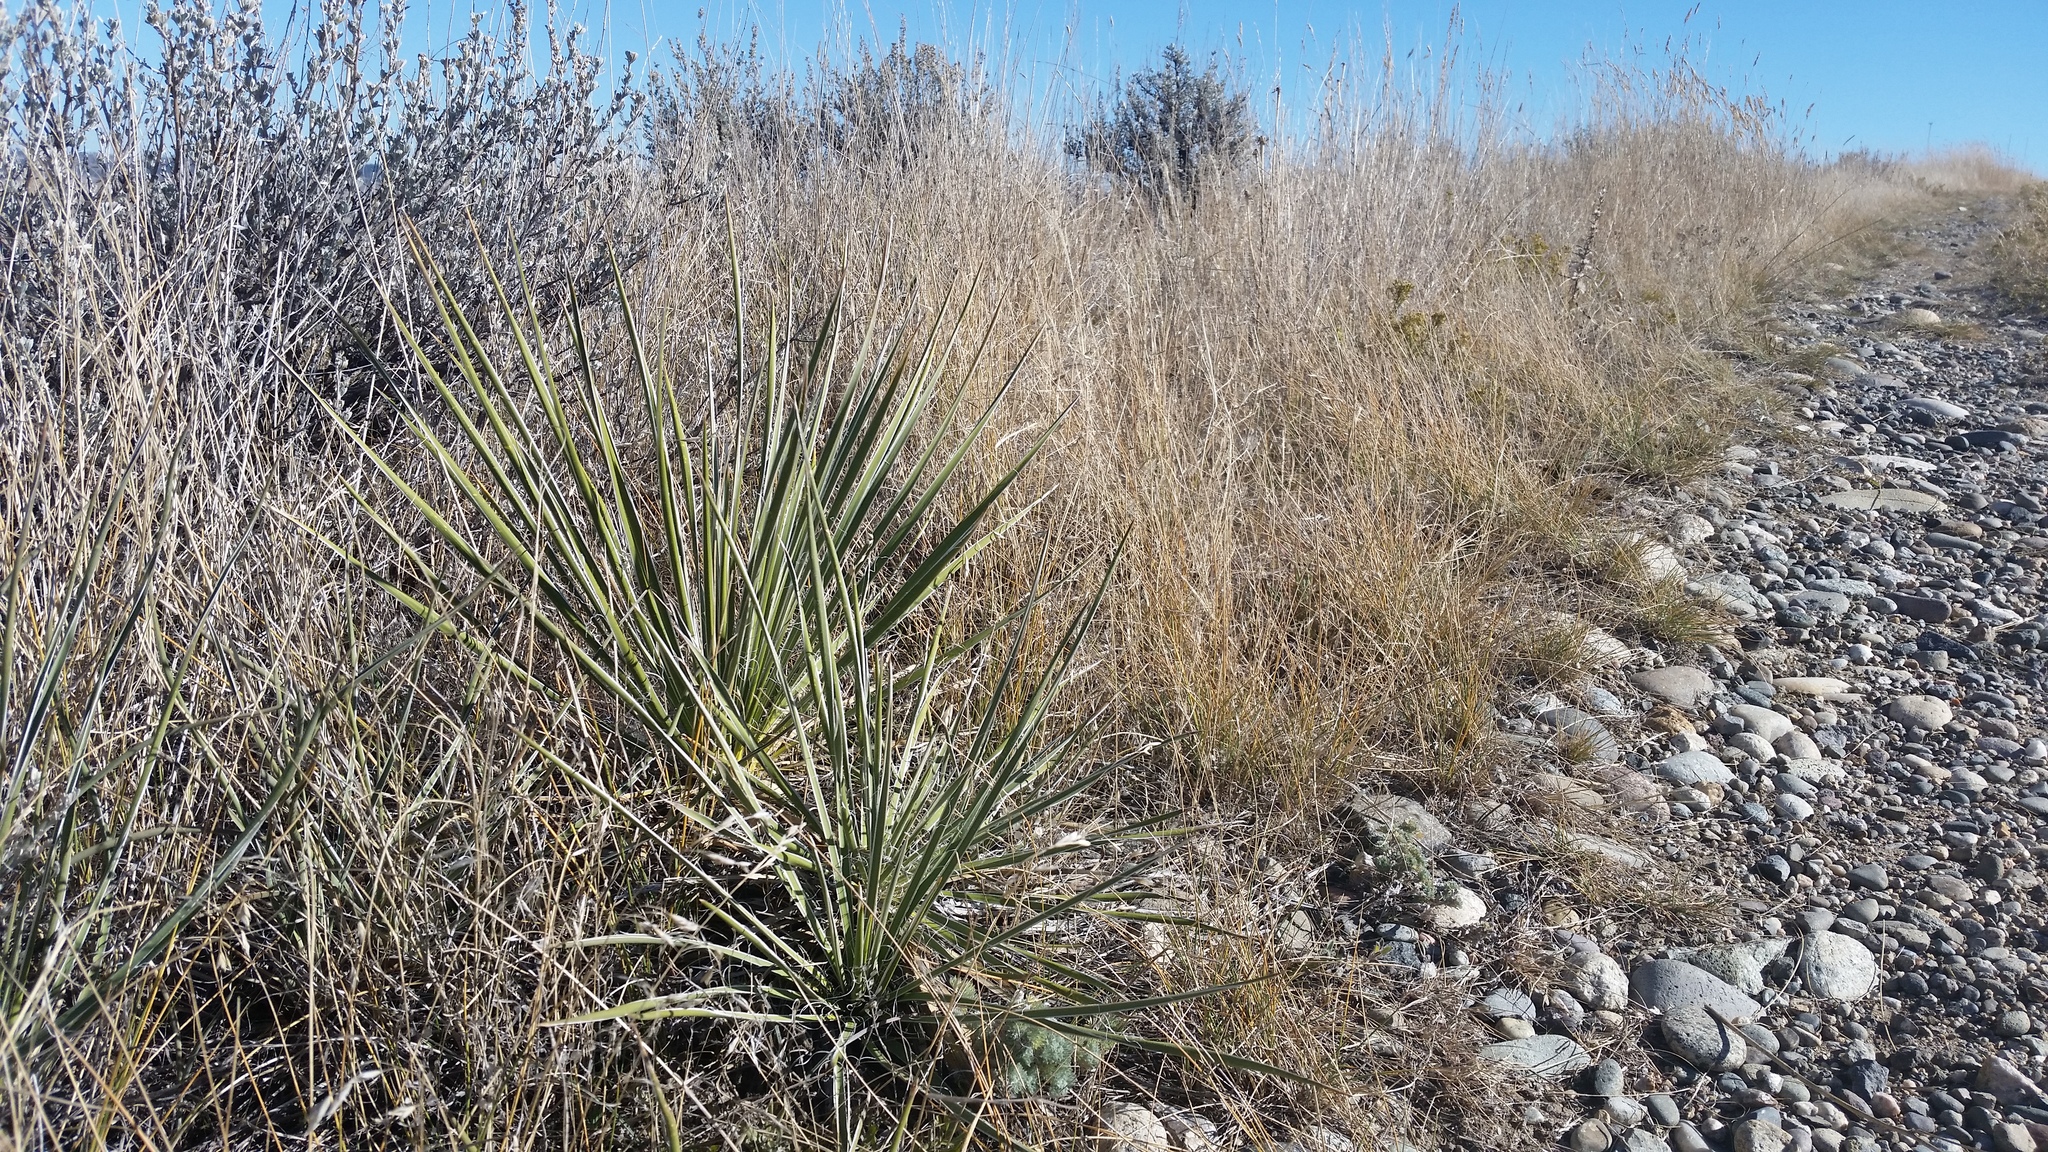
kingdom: Plantae
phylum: Tracheophyta
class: Liliopsida
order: Asparagales
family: Asparagaceae
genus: Yucca
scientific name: Yucca glauca
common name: Great plains yucca
